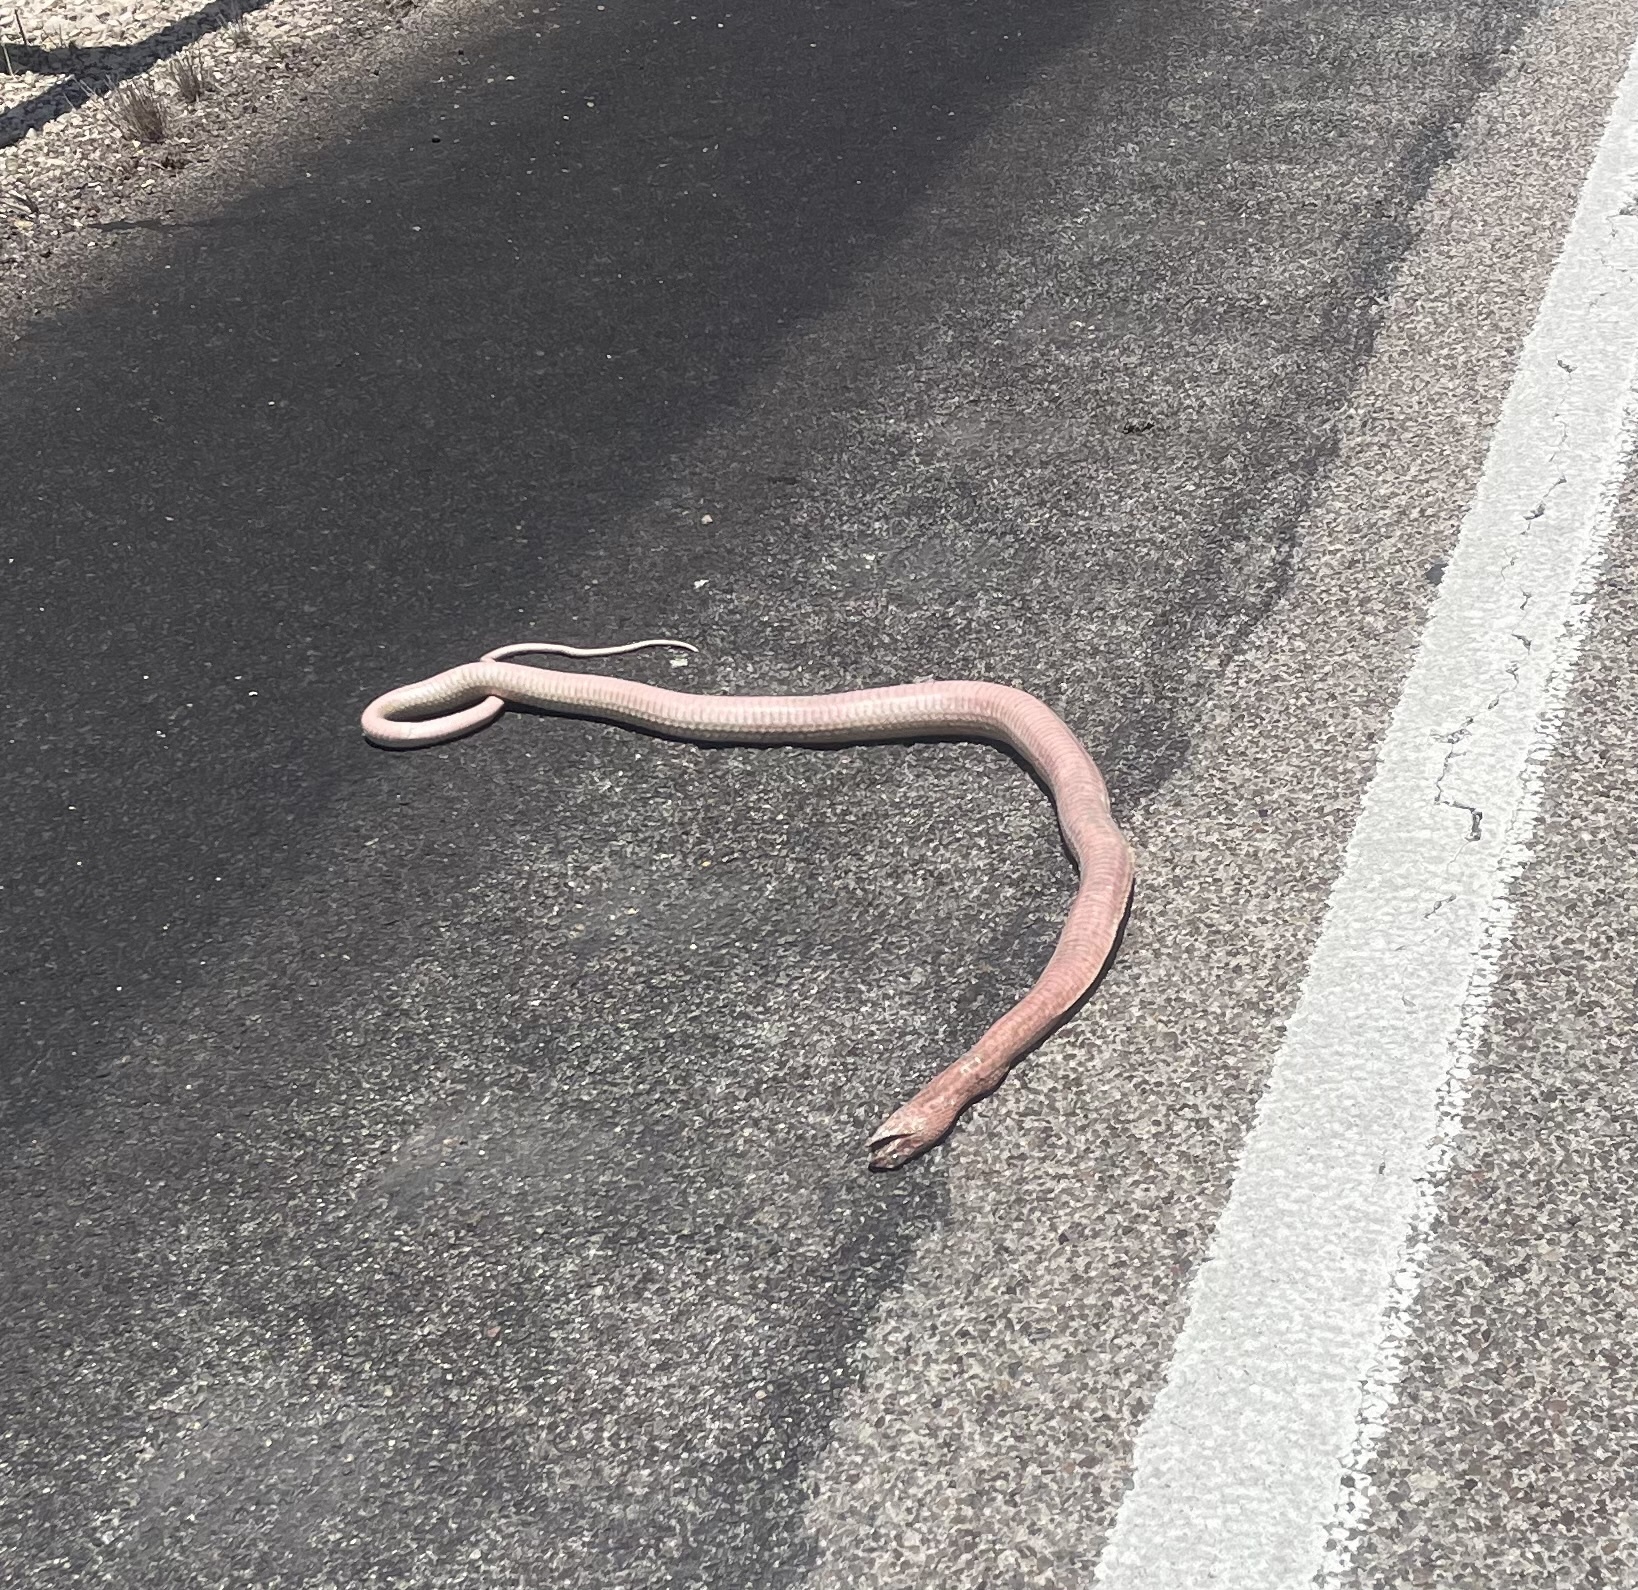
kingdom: Animalia
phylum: Chordata
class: Squamata
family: Colubridae
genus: Masticophis
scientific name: Masticophis flagellum
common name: Coachwhip
